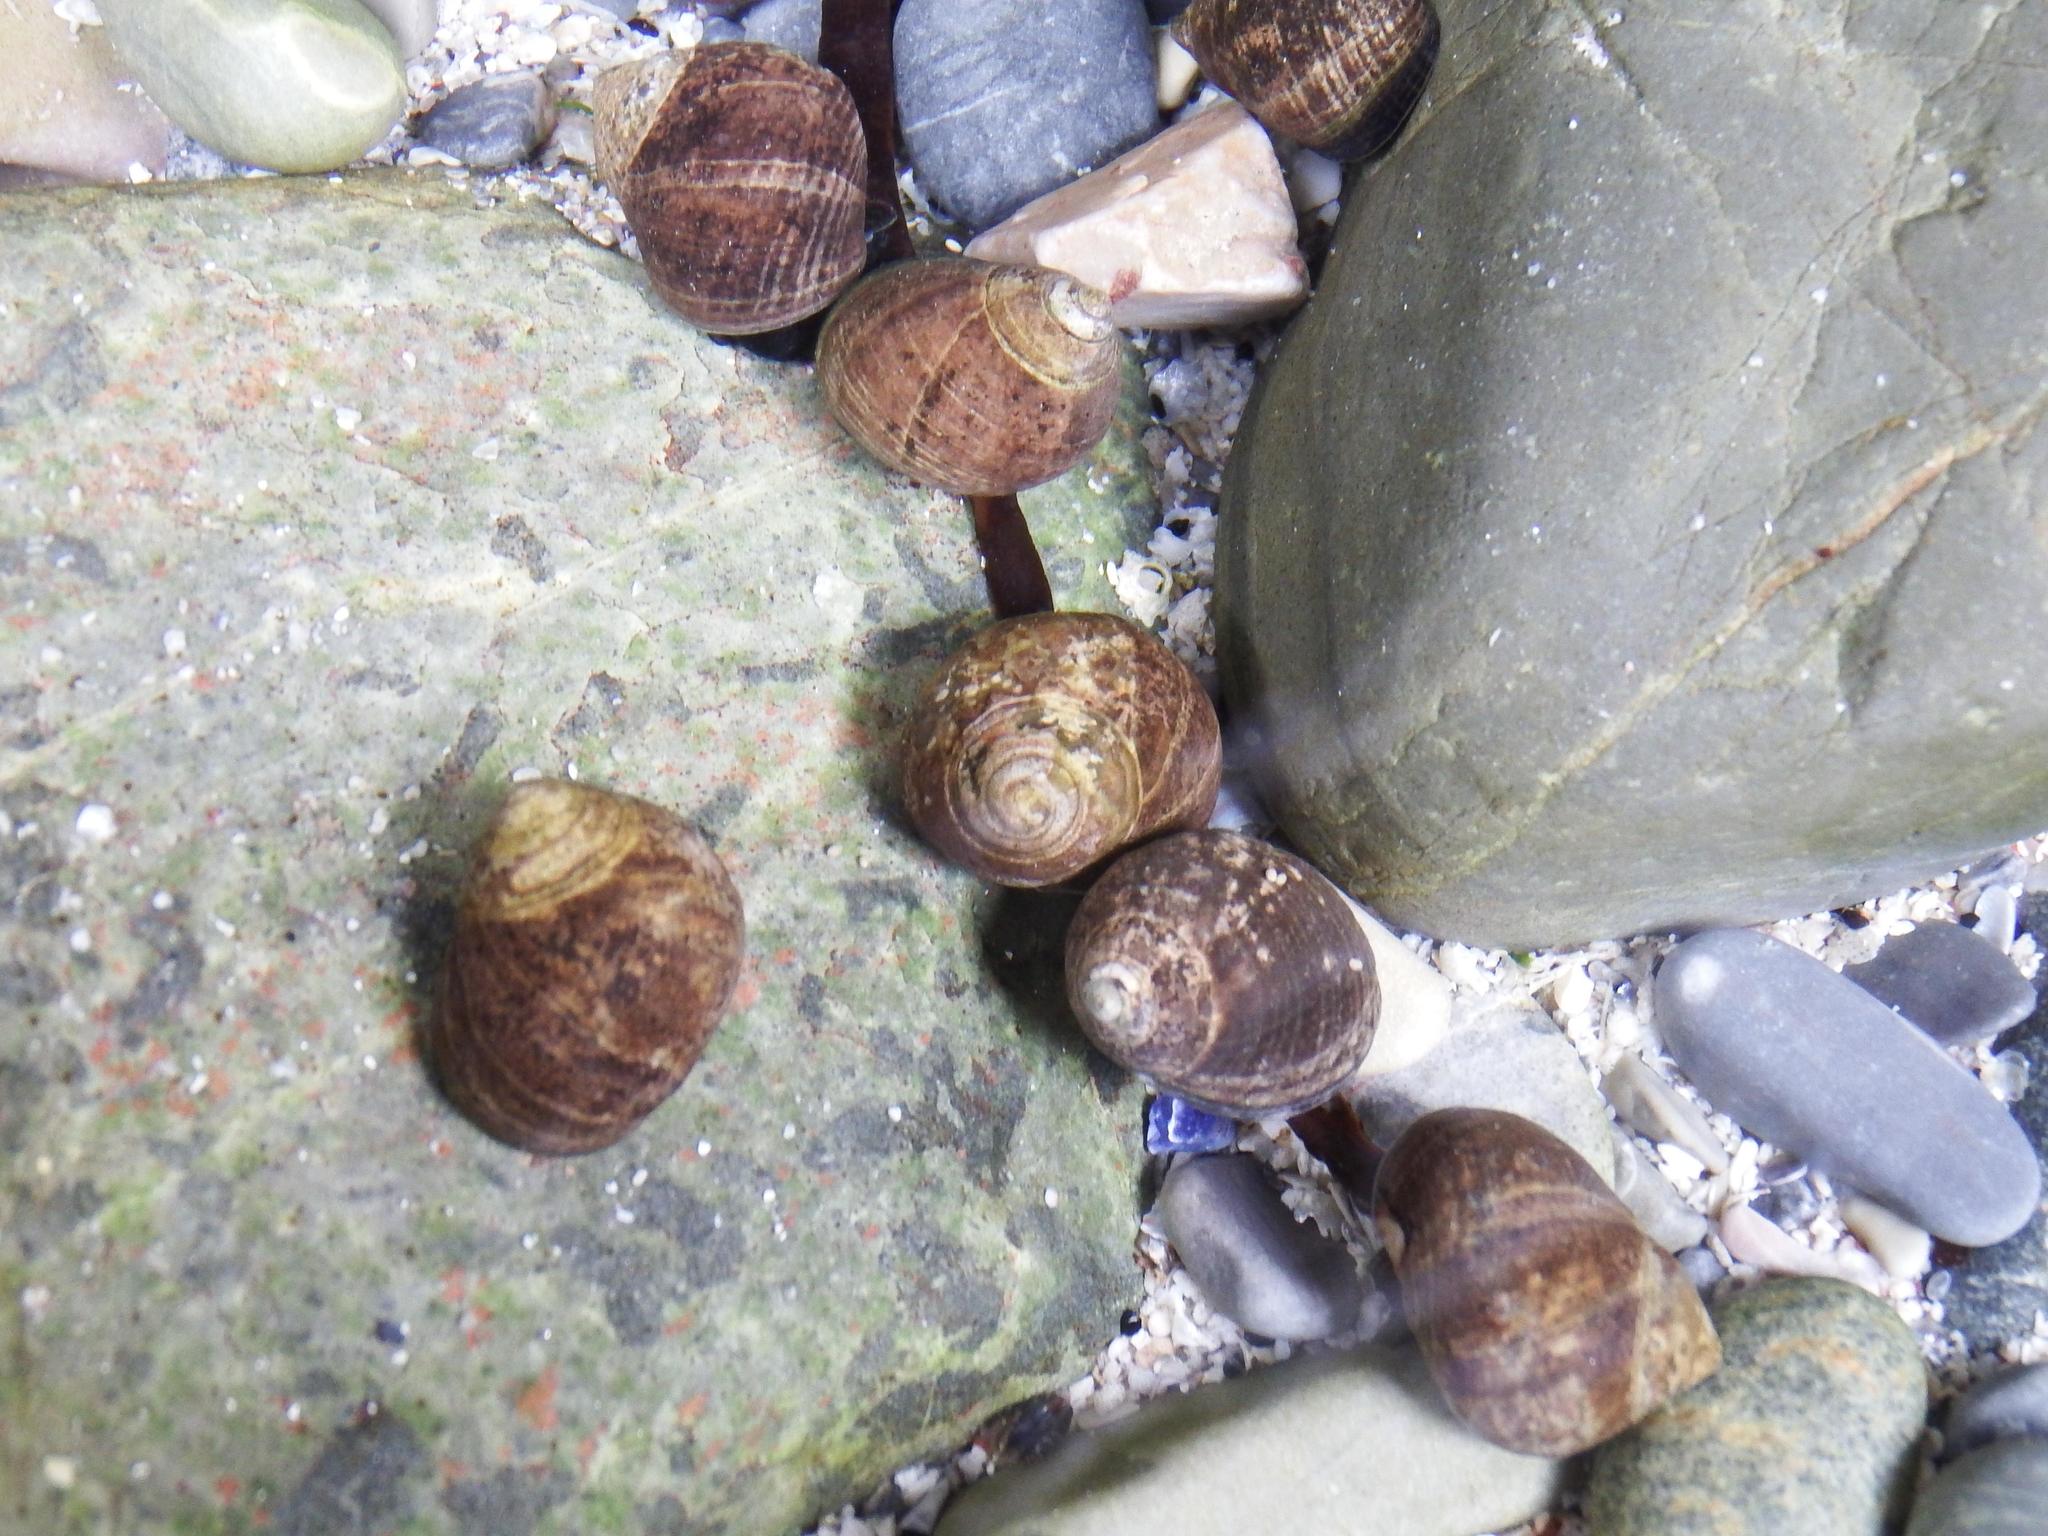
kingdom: Animalia
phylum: Mollusca
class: Gastropoda
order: Littorinimorpha
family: Littorinidae
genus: Littorina
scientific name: Littorina littorea
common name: Common periwinkle
